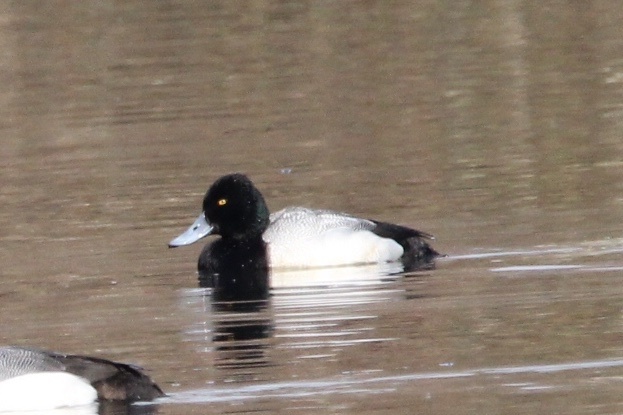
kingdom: Animalia
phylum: Chordata
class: Aves
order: Anseriformes
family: Anatidae
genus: Aythya
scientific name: Aythya affinis
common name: Lesser scaup
